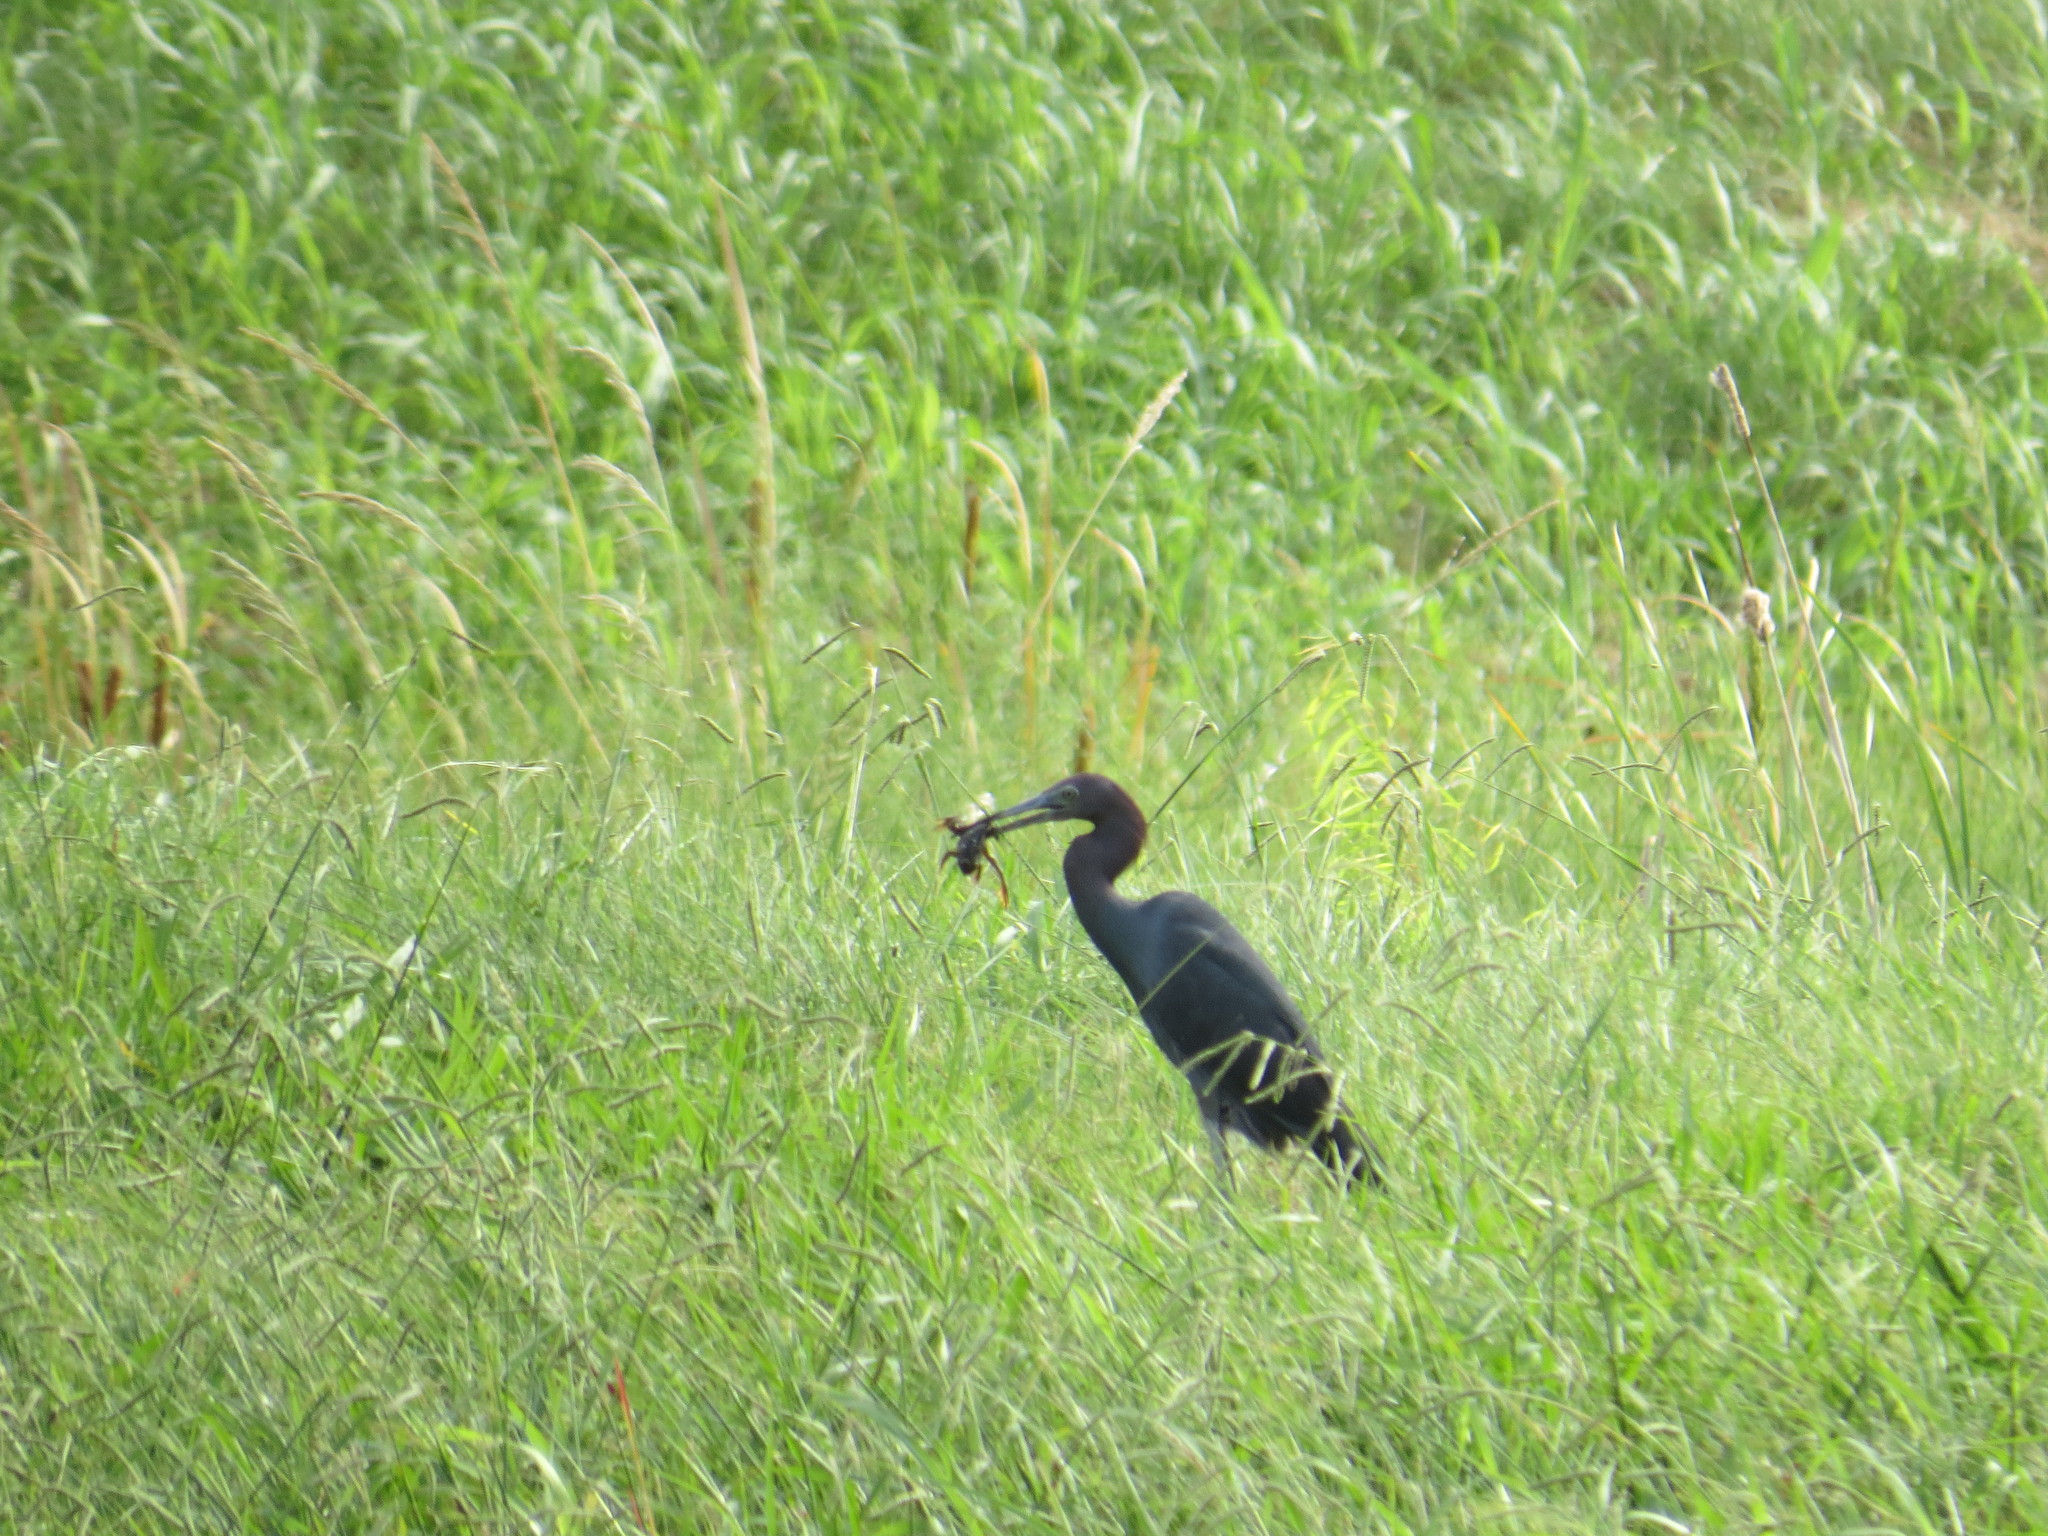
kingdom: Animalia
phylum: Chordata
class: Aves
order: Pelecaniformes
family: Ardeidae
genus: Egretta
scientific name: Egretta caerulea
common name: Little blue heron
